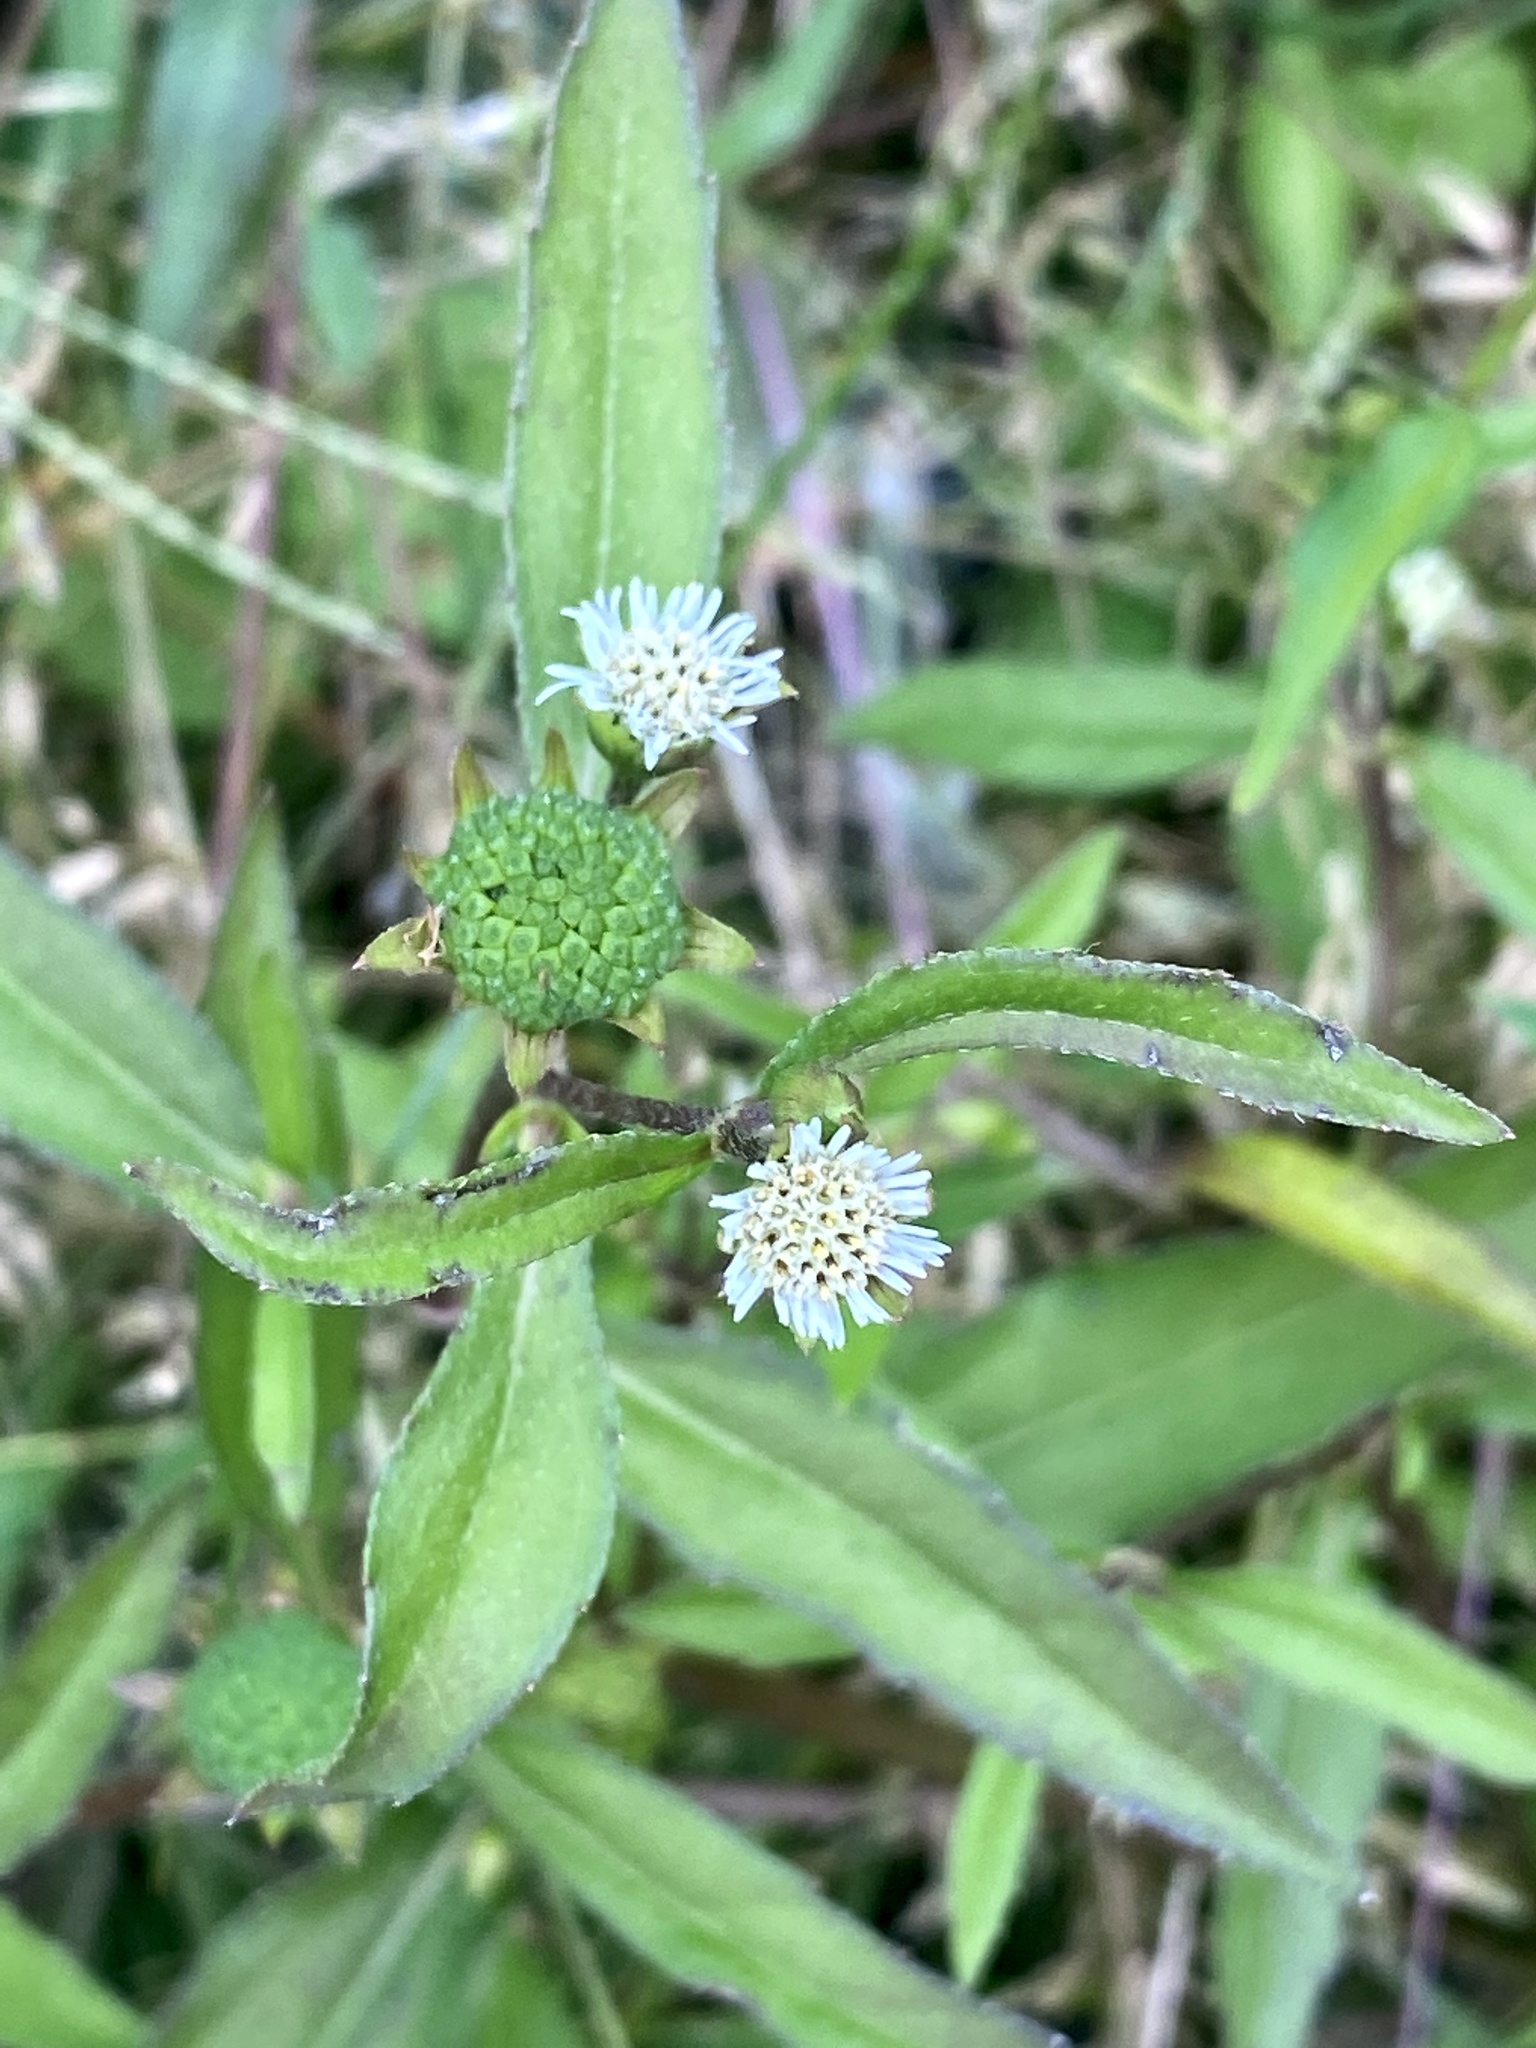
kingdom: Plantae
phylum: Tracheophyta
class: Magnoliopsida
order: Asterales
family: Asteraceae
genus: Eclipta
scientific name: Eclipta prostrata
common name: False daisy
